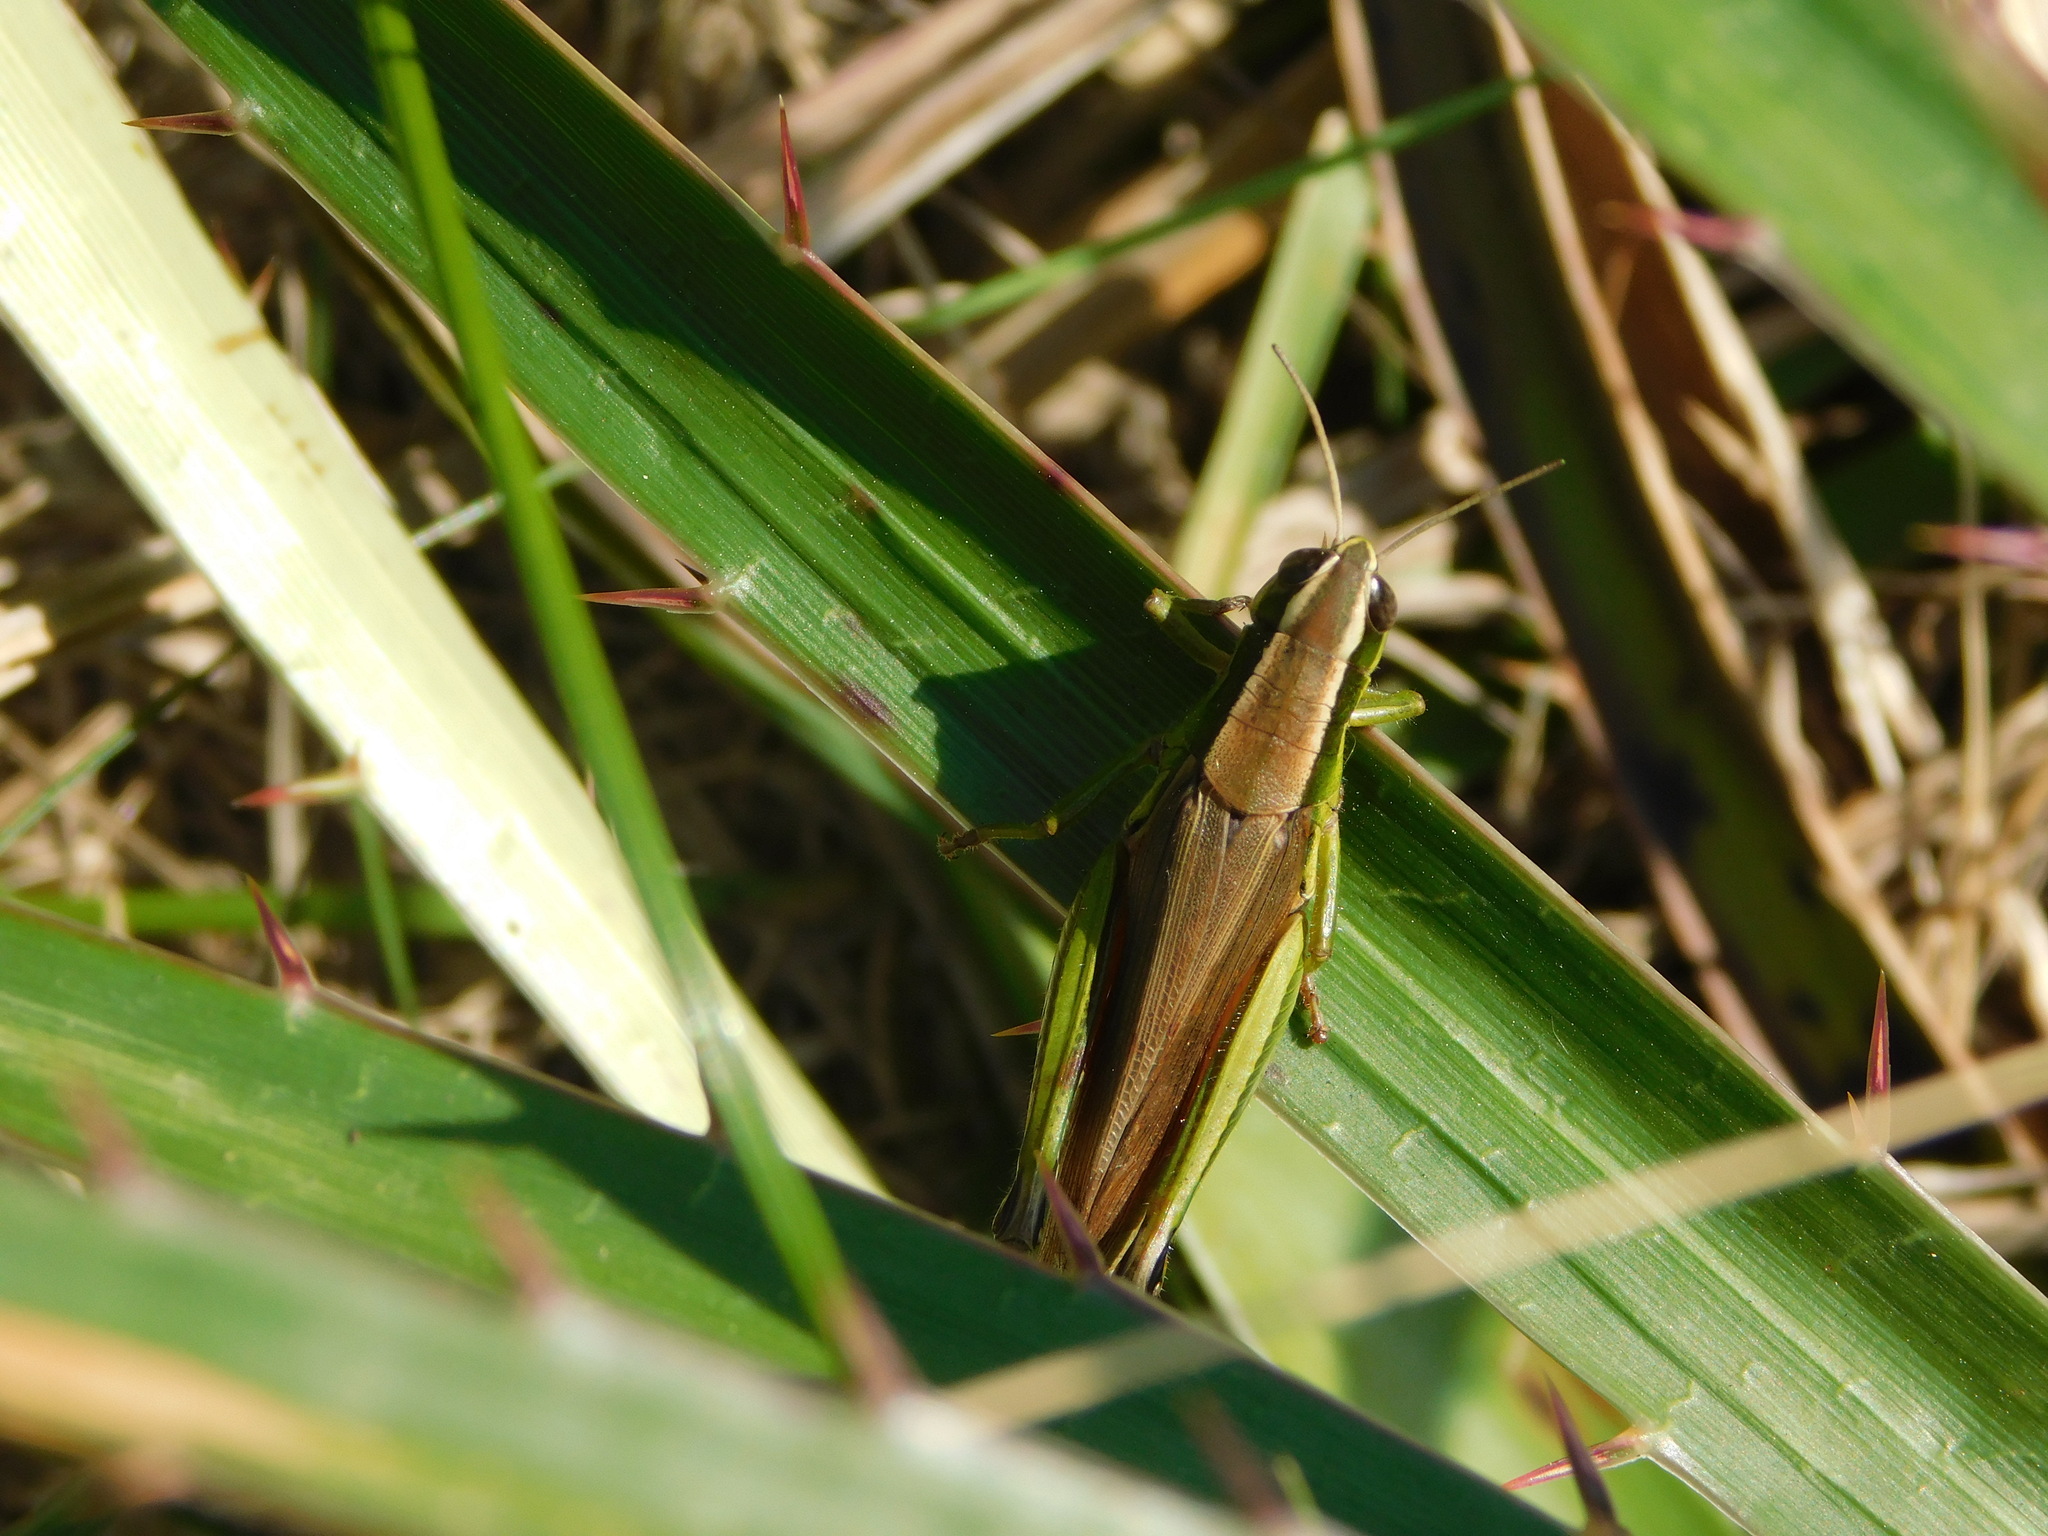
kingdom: Animalia
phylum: Arthropoda
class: Insecta
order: Orthoptera
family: Acrididae
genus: Scotussa
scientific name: Scotussa cliens
